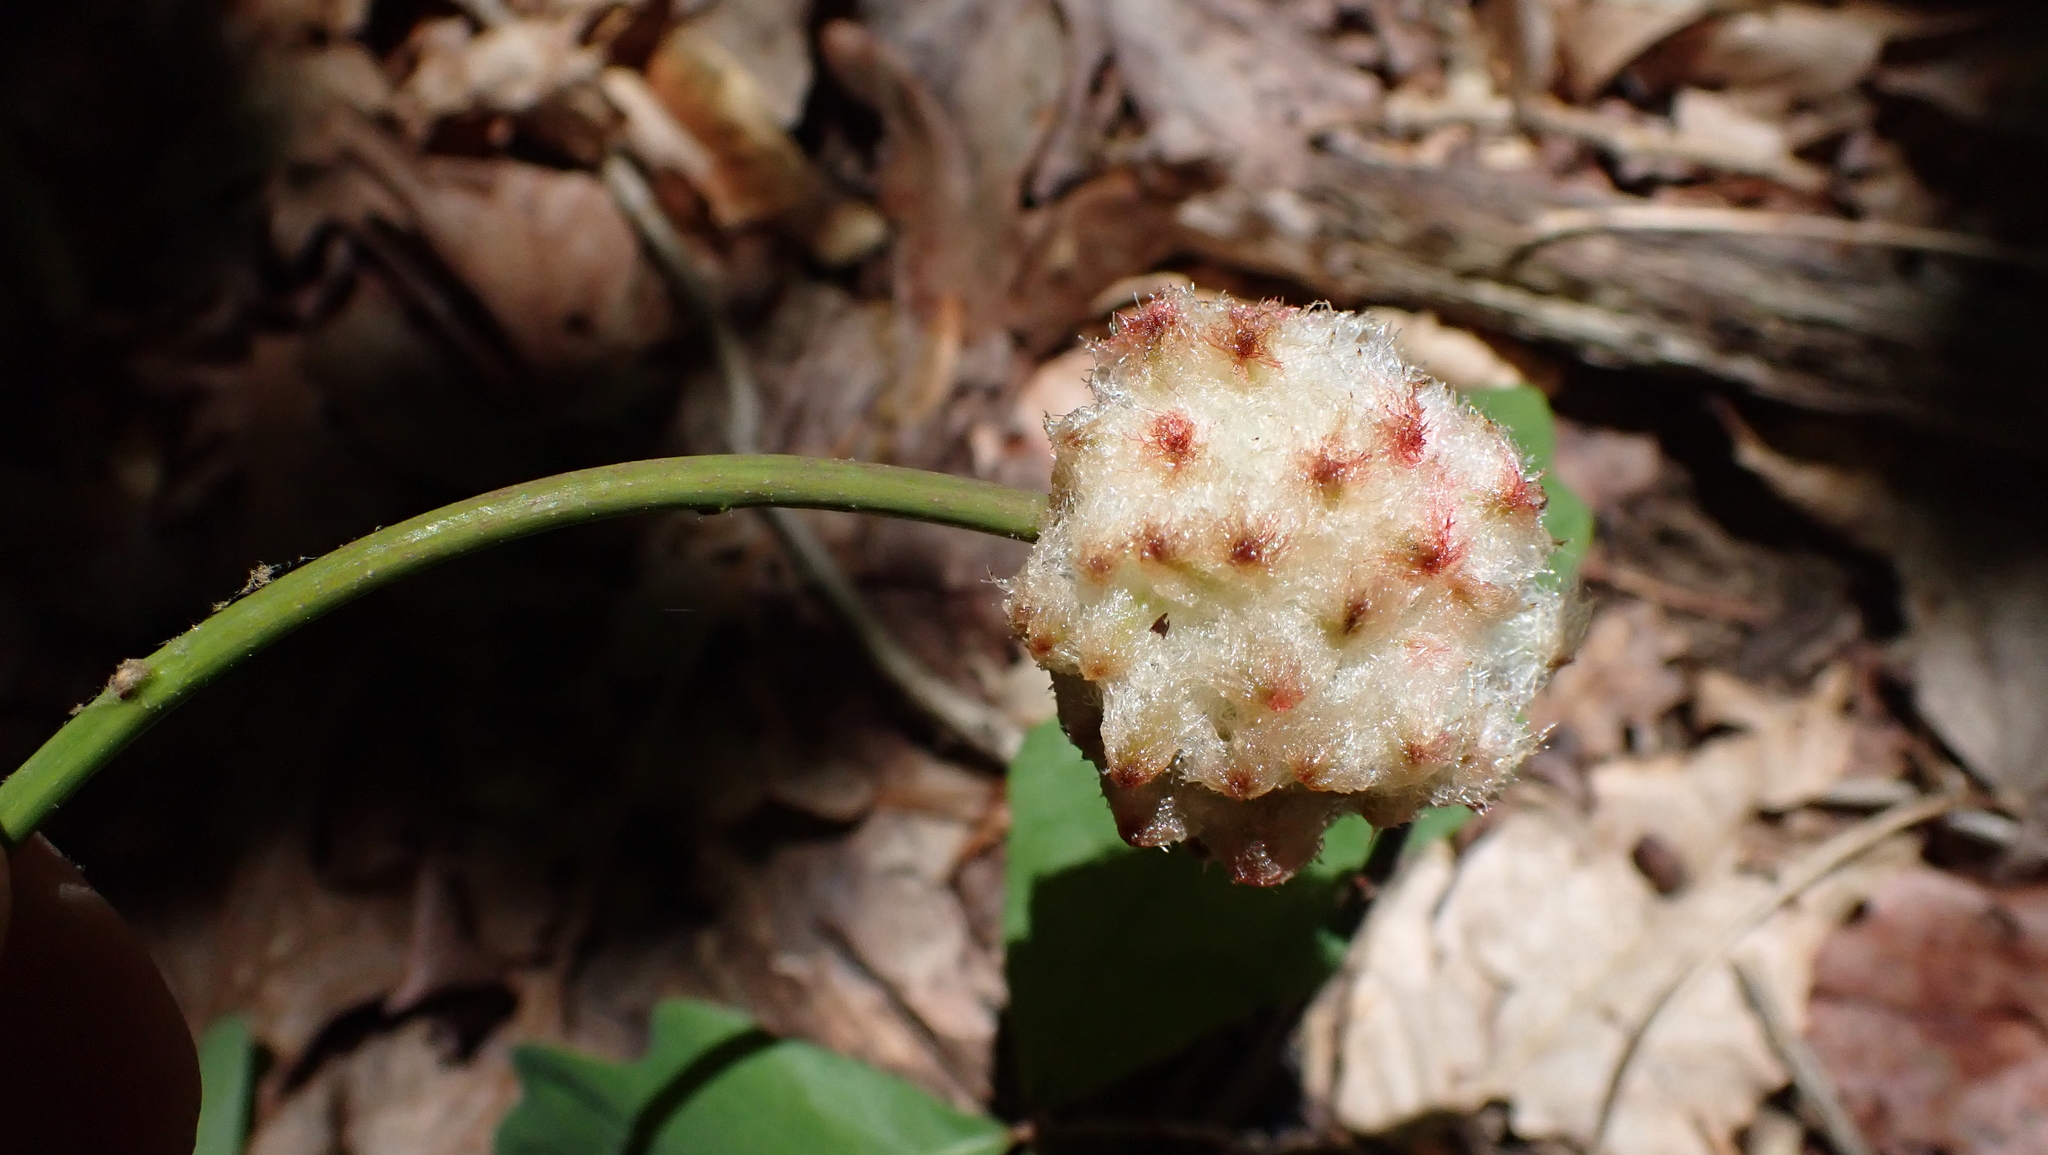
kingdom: Animalia
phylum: Arthropoda
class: Insecta
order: Hymenoptera
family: Cynipidae
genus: Callirhytis
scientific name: Callirhytis
